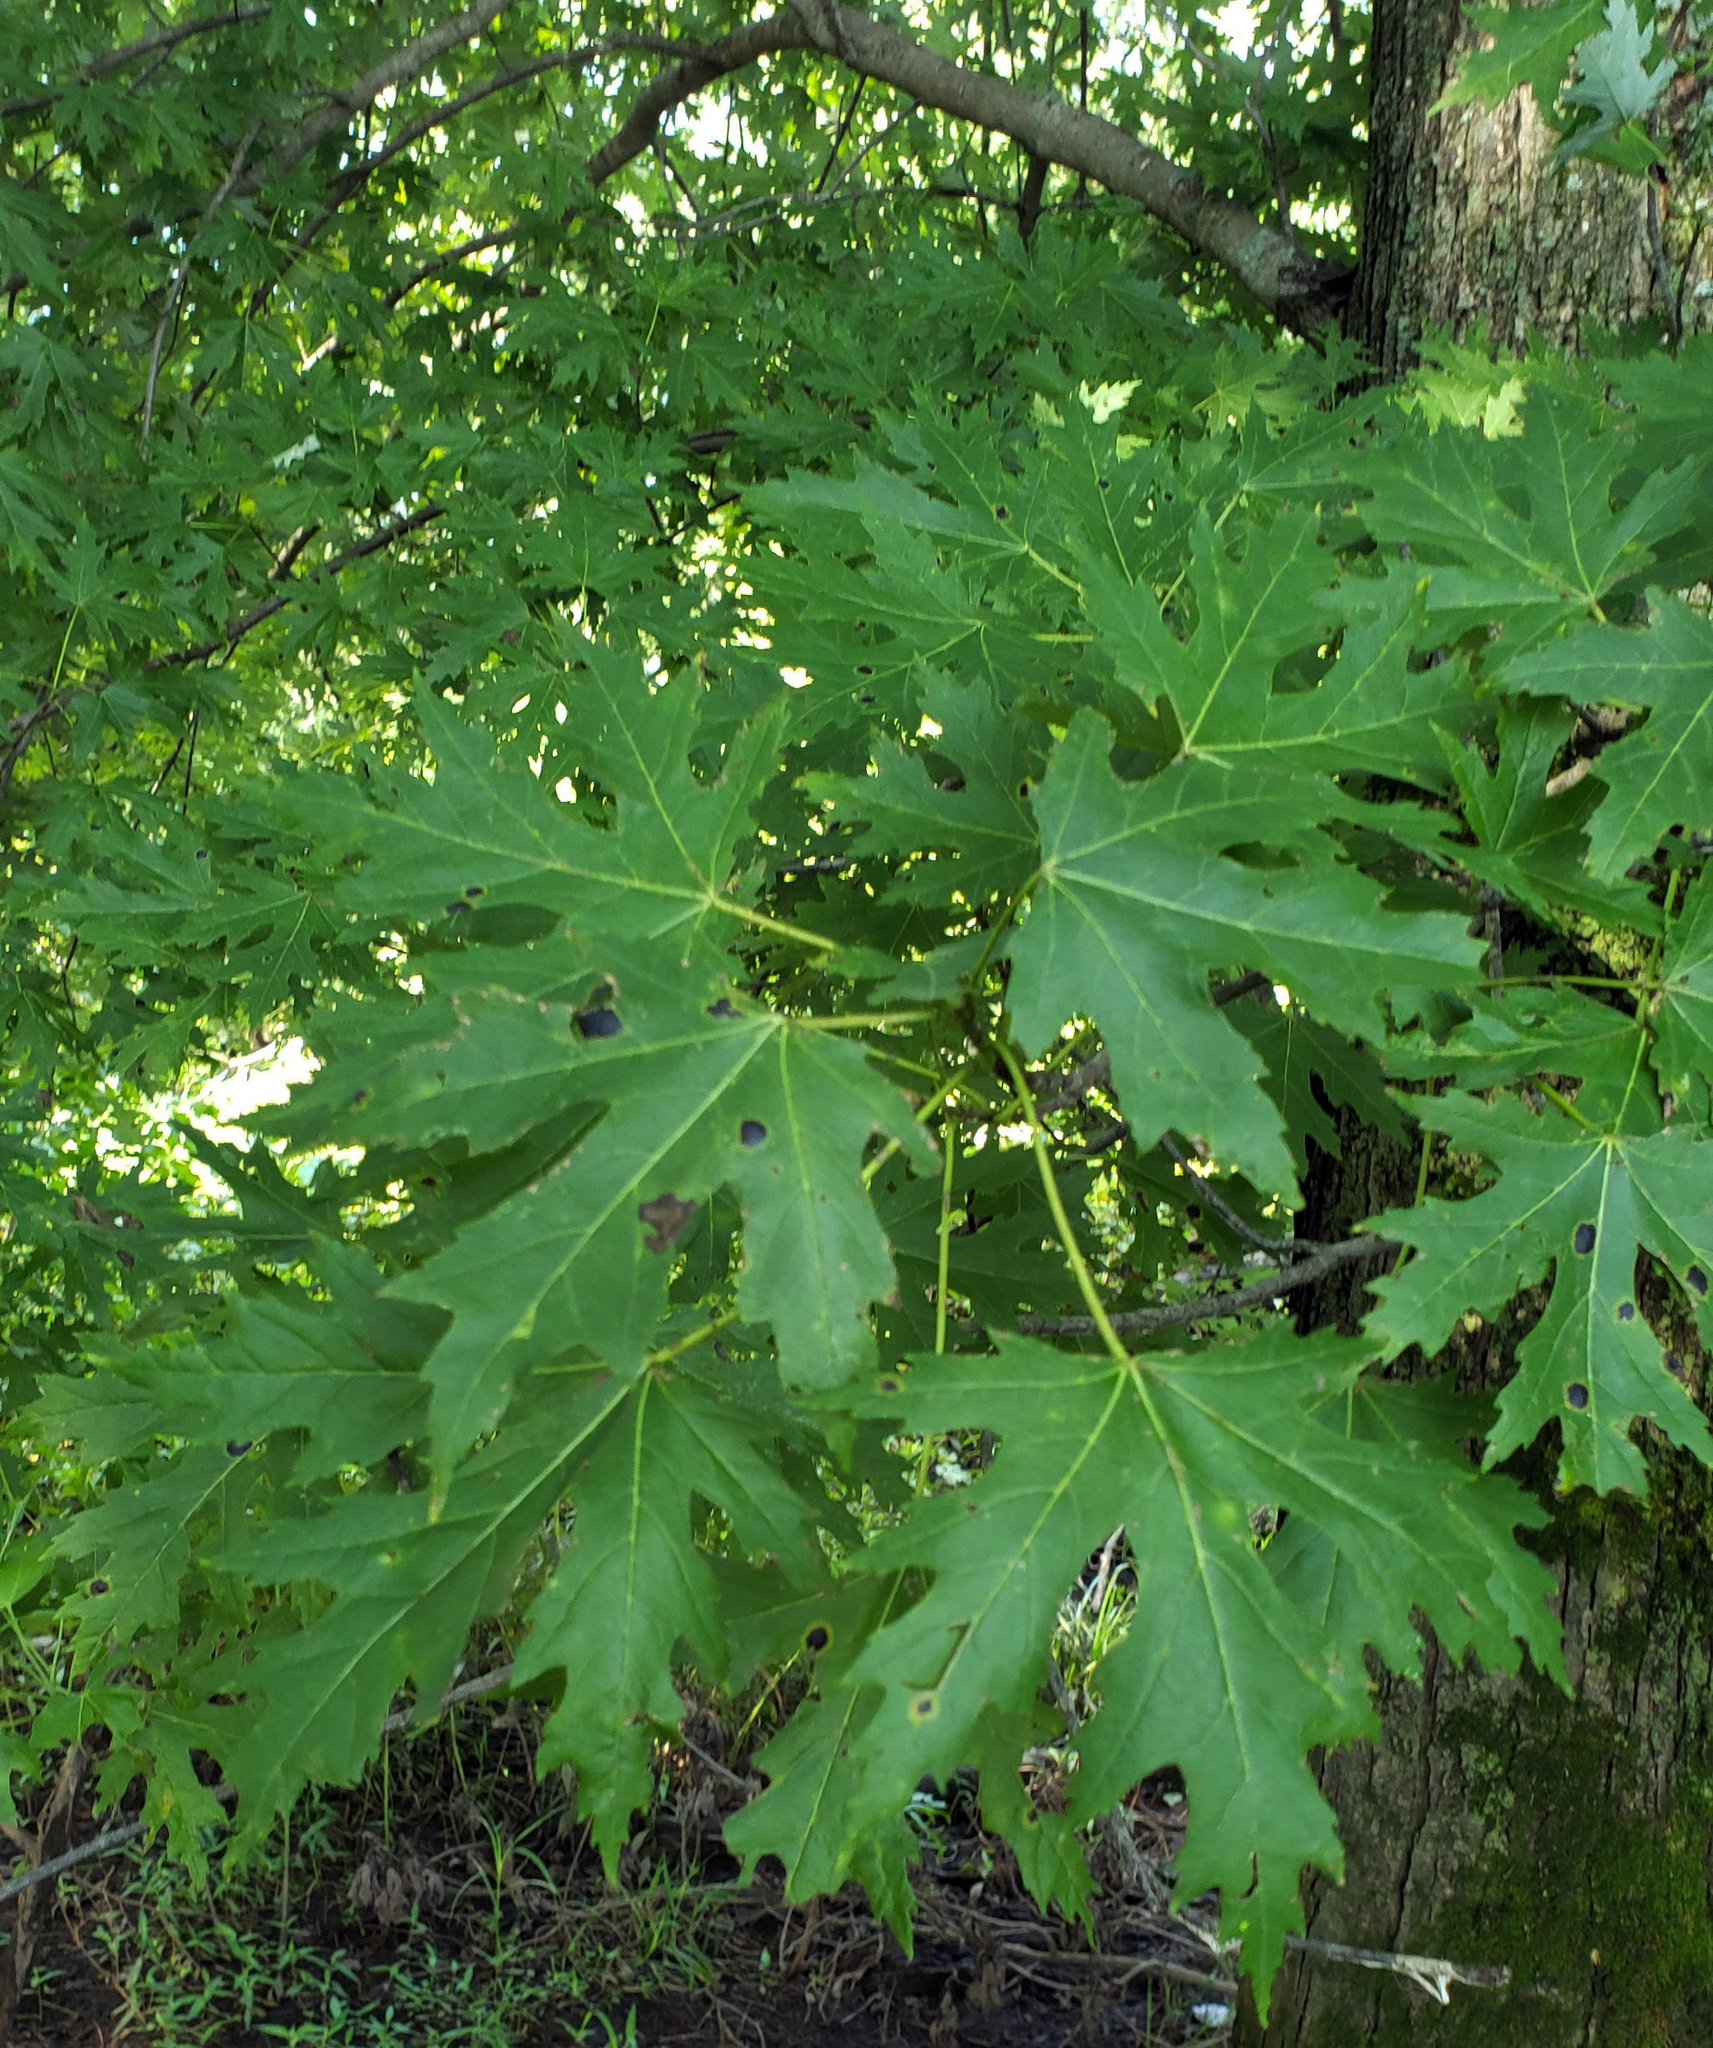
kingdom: Plantae
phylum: Tracheophyta
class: Magnoliopsida
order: Sapindales
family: Sapindaceae
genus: Acer
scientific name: Acer saccharinum
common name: Silver maple
